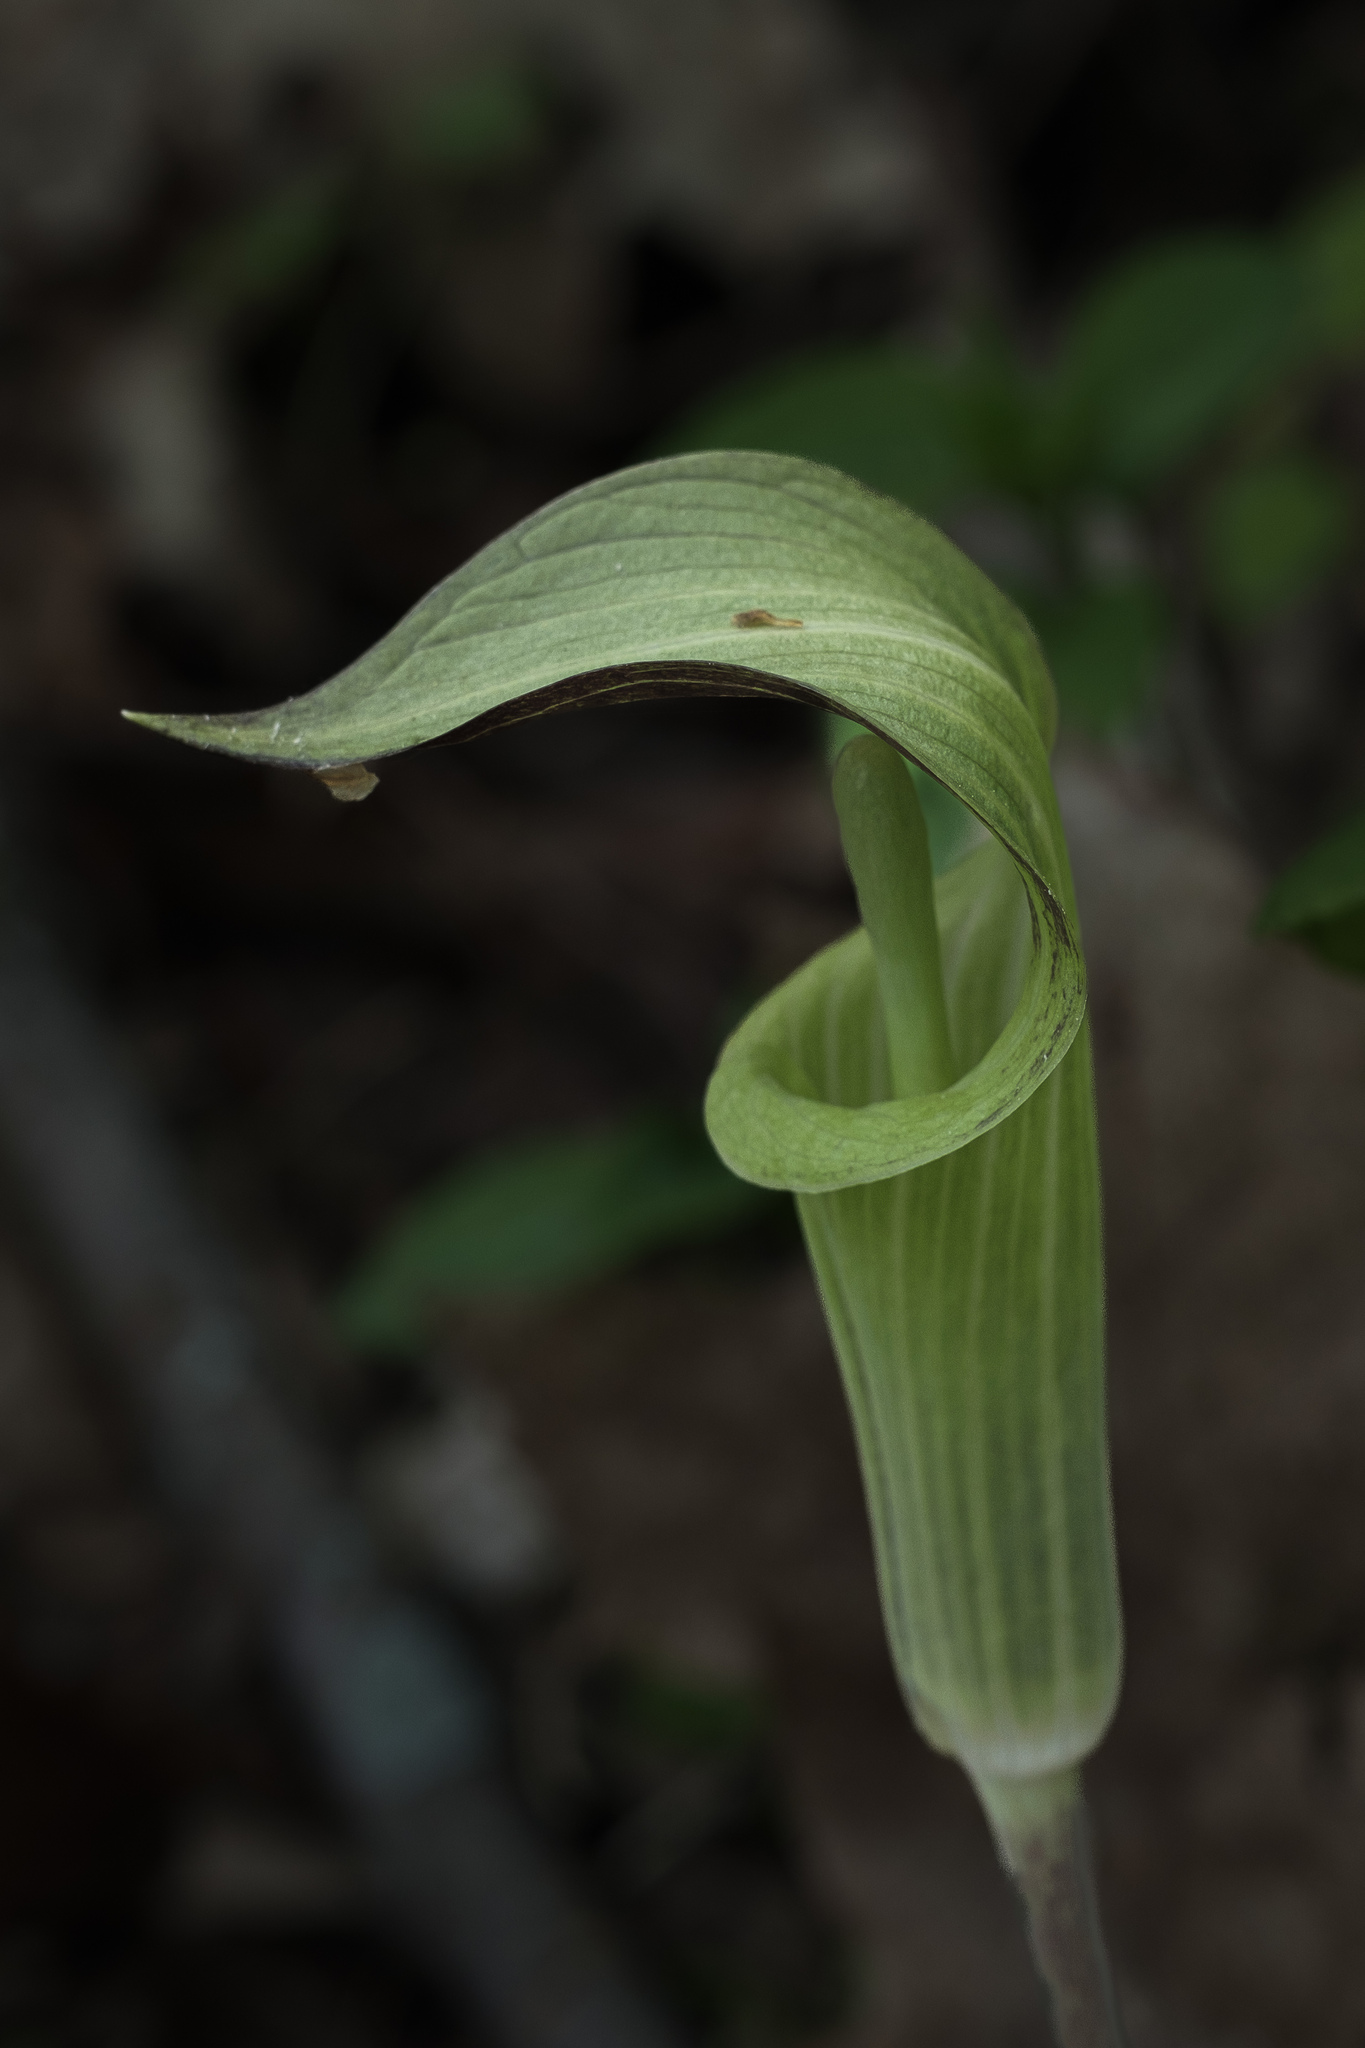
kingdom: Plantae
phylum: Tracheophyta
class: Liliopsida
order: Alismatales
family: Araceae
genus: Arisaema
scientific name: Arisaema triphyllum
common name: Jack-in-the-pulpit
